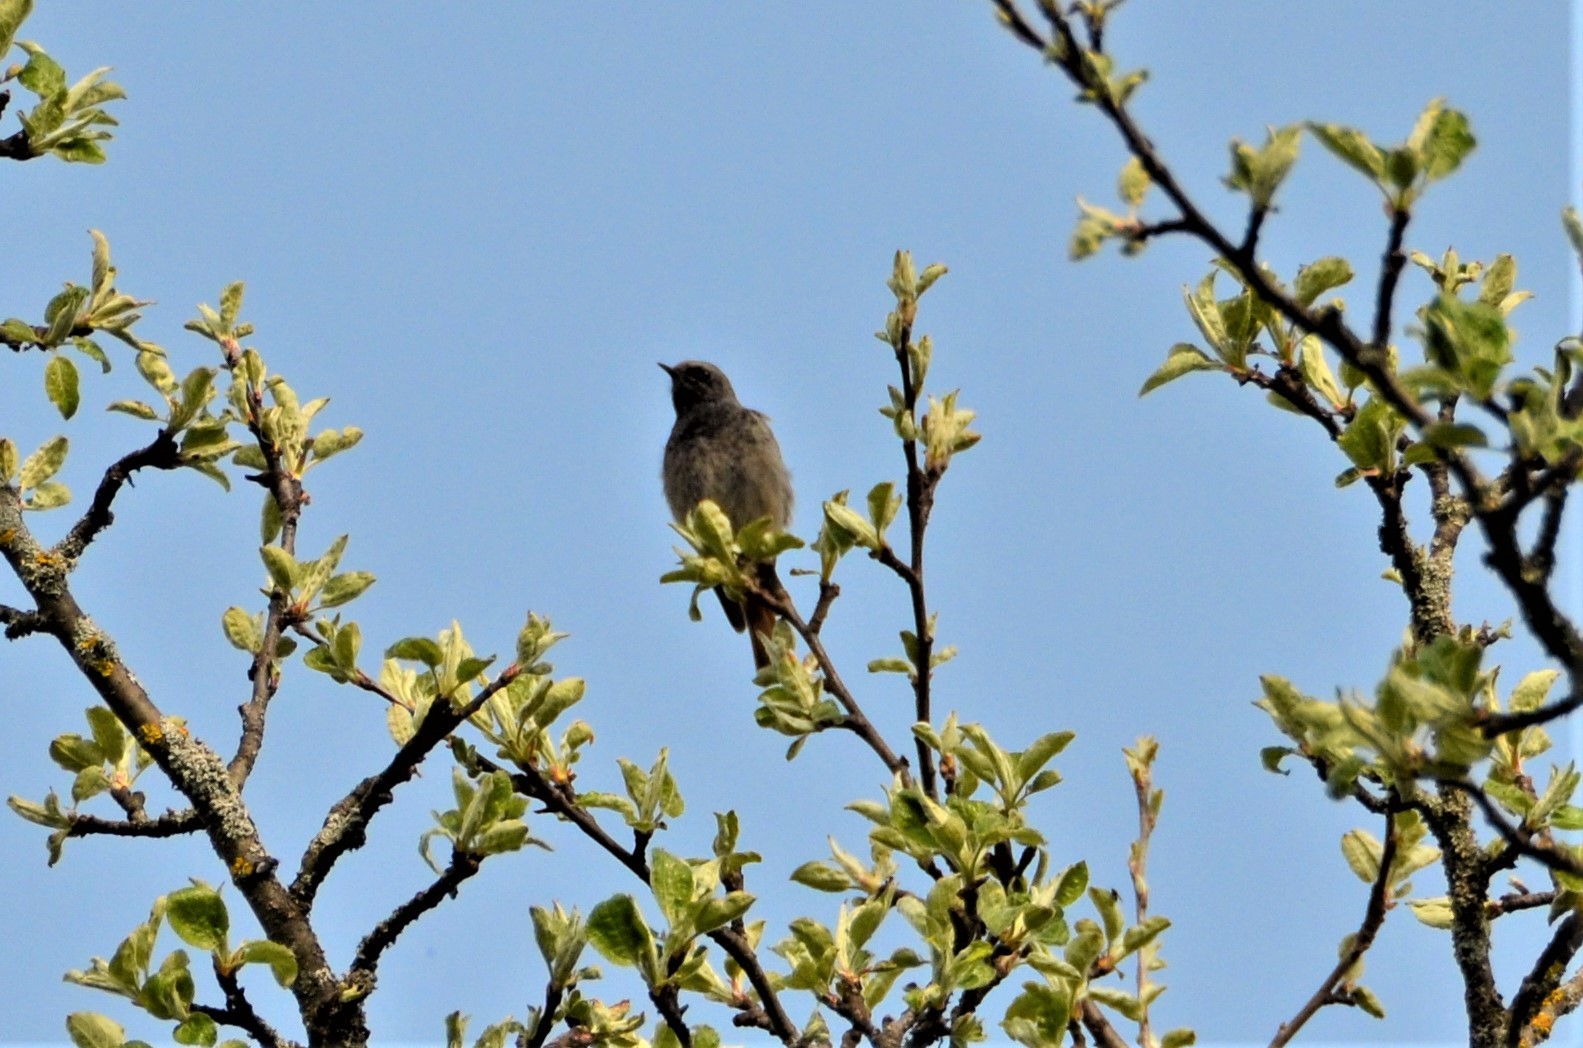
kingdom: Animalia
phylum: Chordata
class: Aves
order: Passeriformes
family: Muscicapidae
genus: Phoenicurus
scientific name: Phoenicurus ochruros
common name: Black redstart
